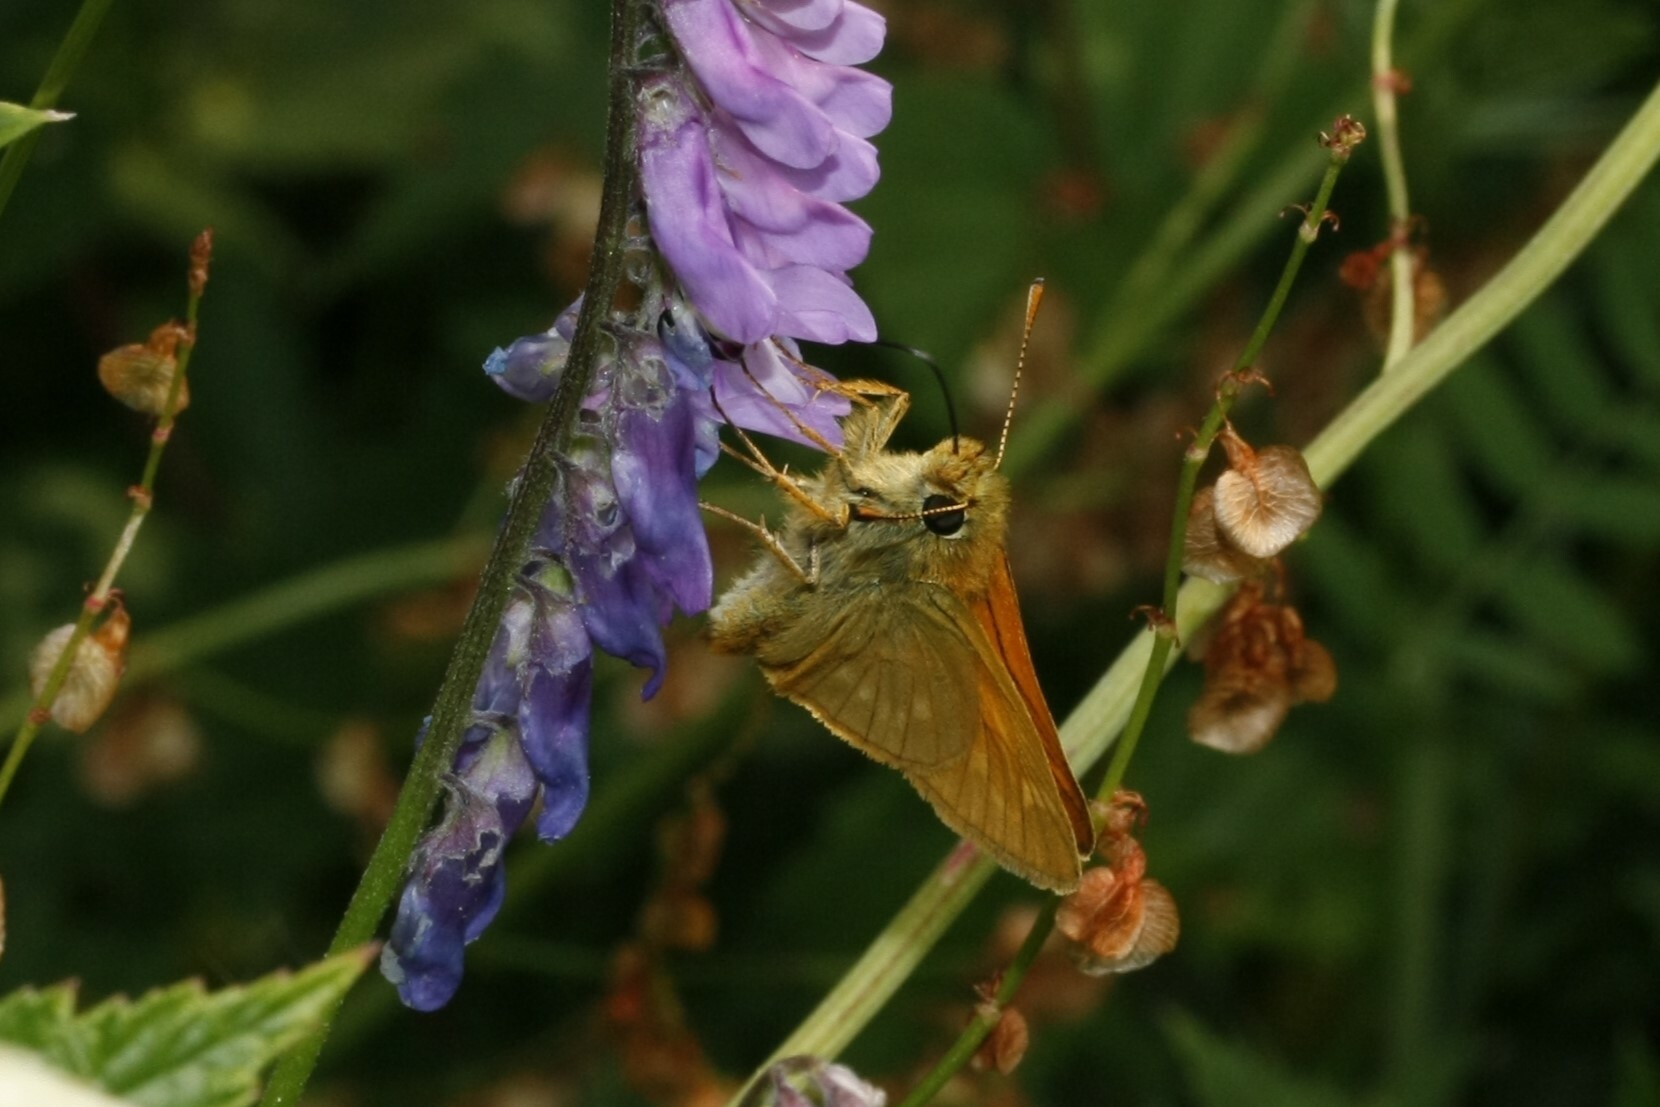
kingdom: Animalia
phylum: Arthropoda
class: Insecta
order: Lepidoptera
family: Hesperiidae
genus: Ochlodes
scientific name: Ochlodes venata
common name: Large skipper
